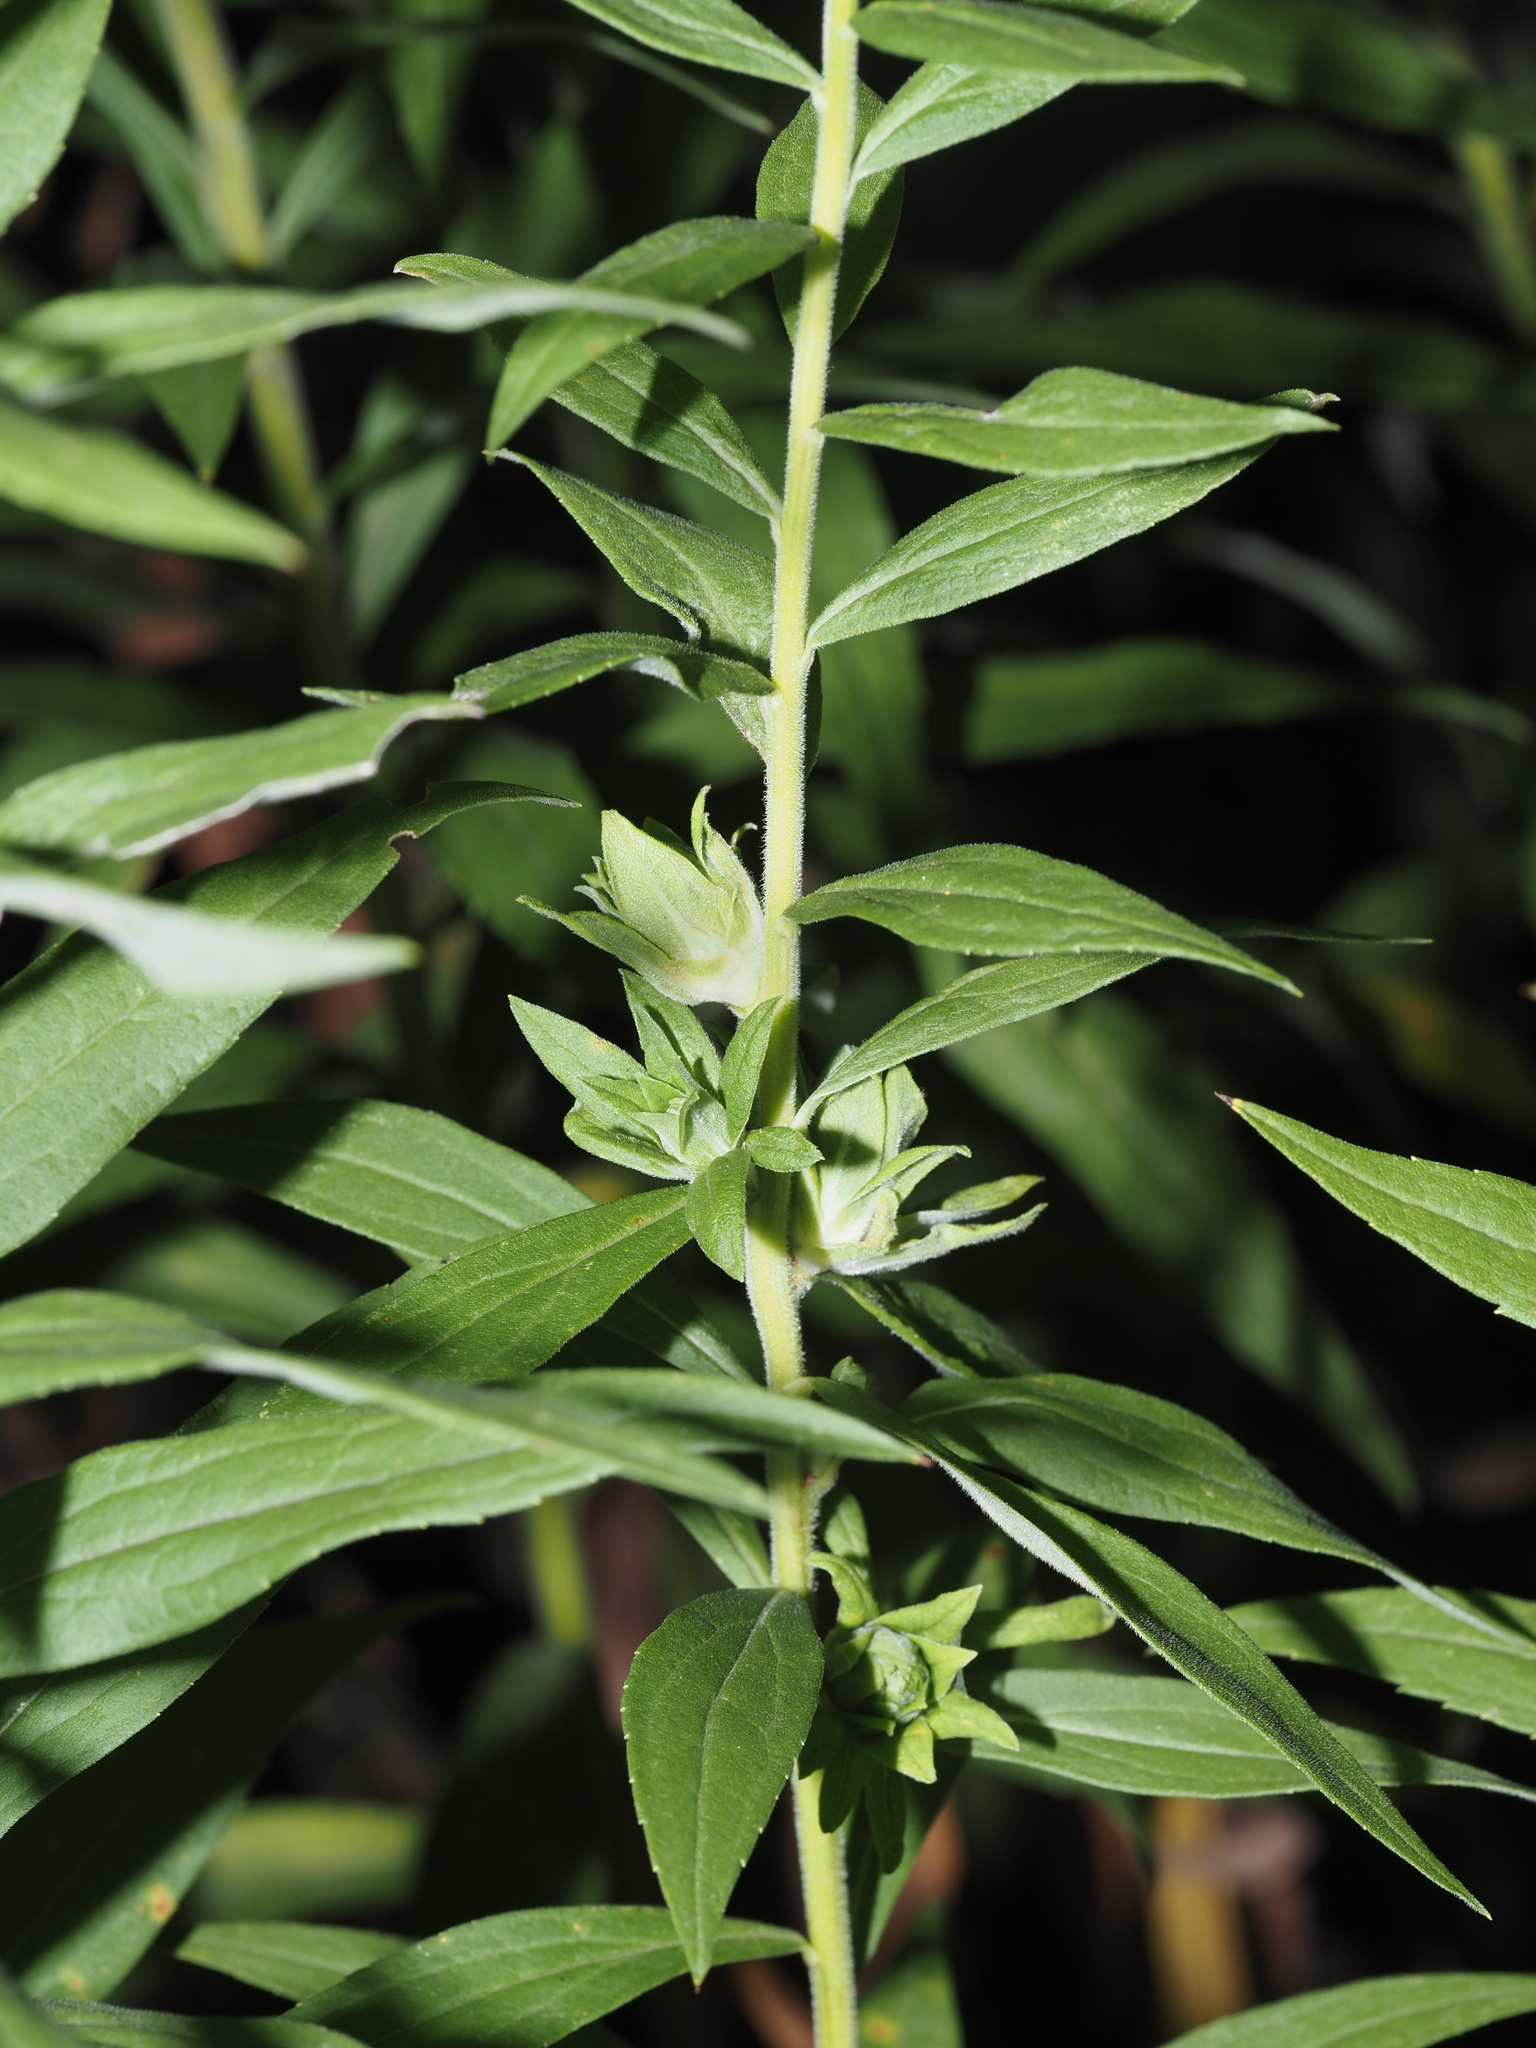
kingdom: Animalia
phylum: Arthropoda
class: Insecta
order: Diptera
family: Tephritidae
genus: Procecidochares
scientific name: Procecidochares atra
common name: Goldenrod brussels sprout gall fly
